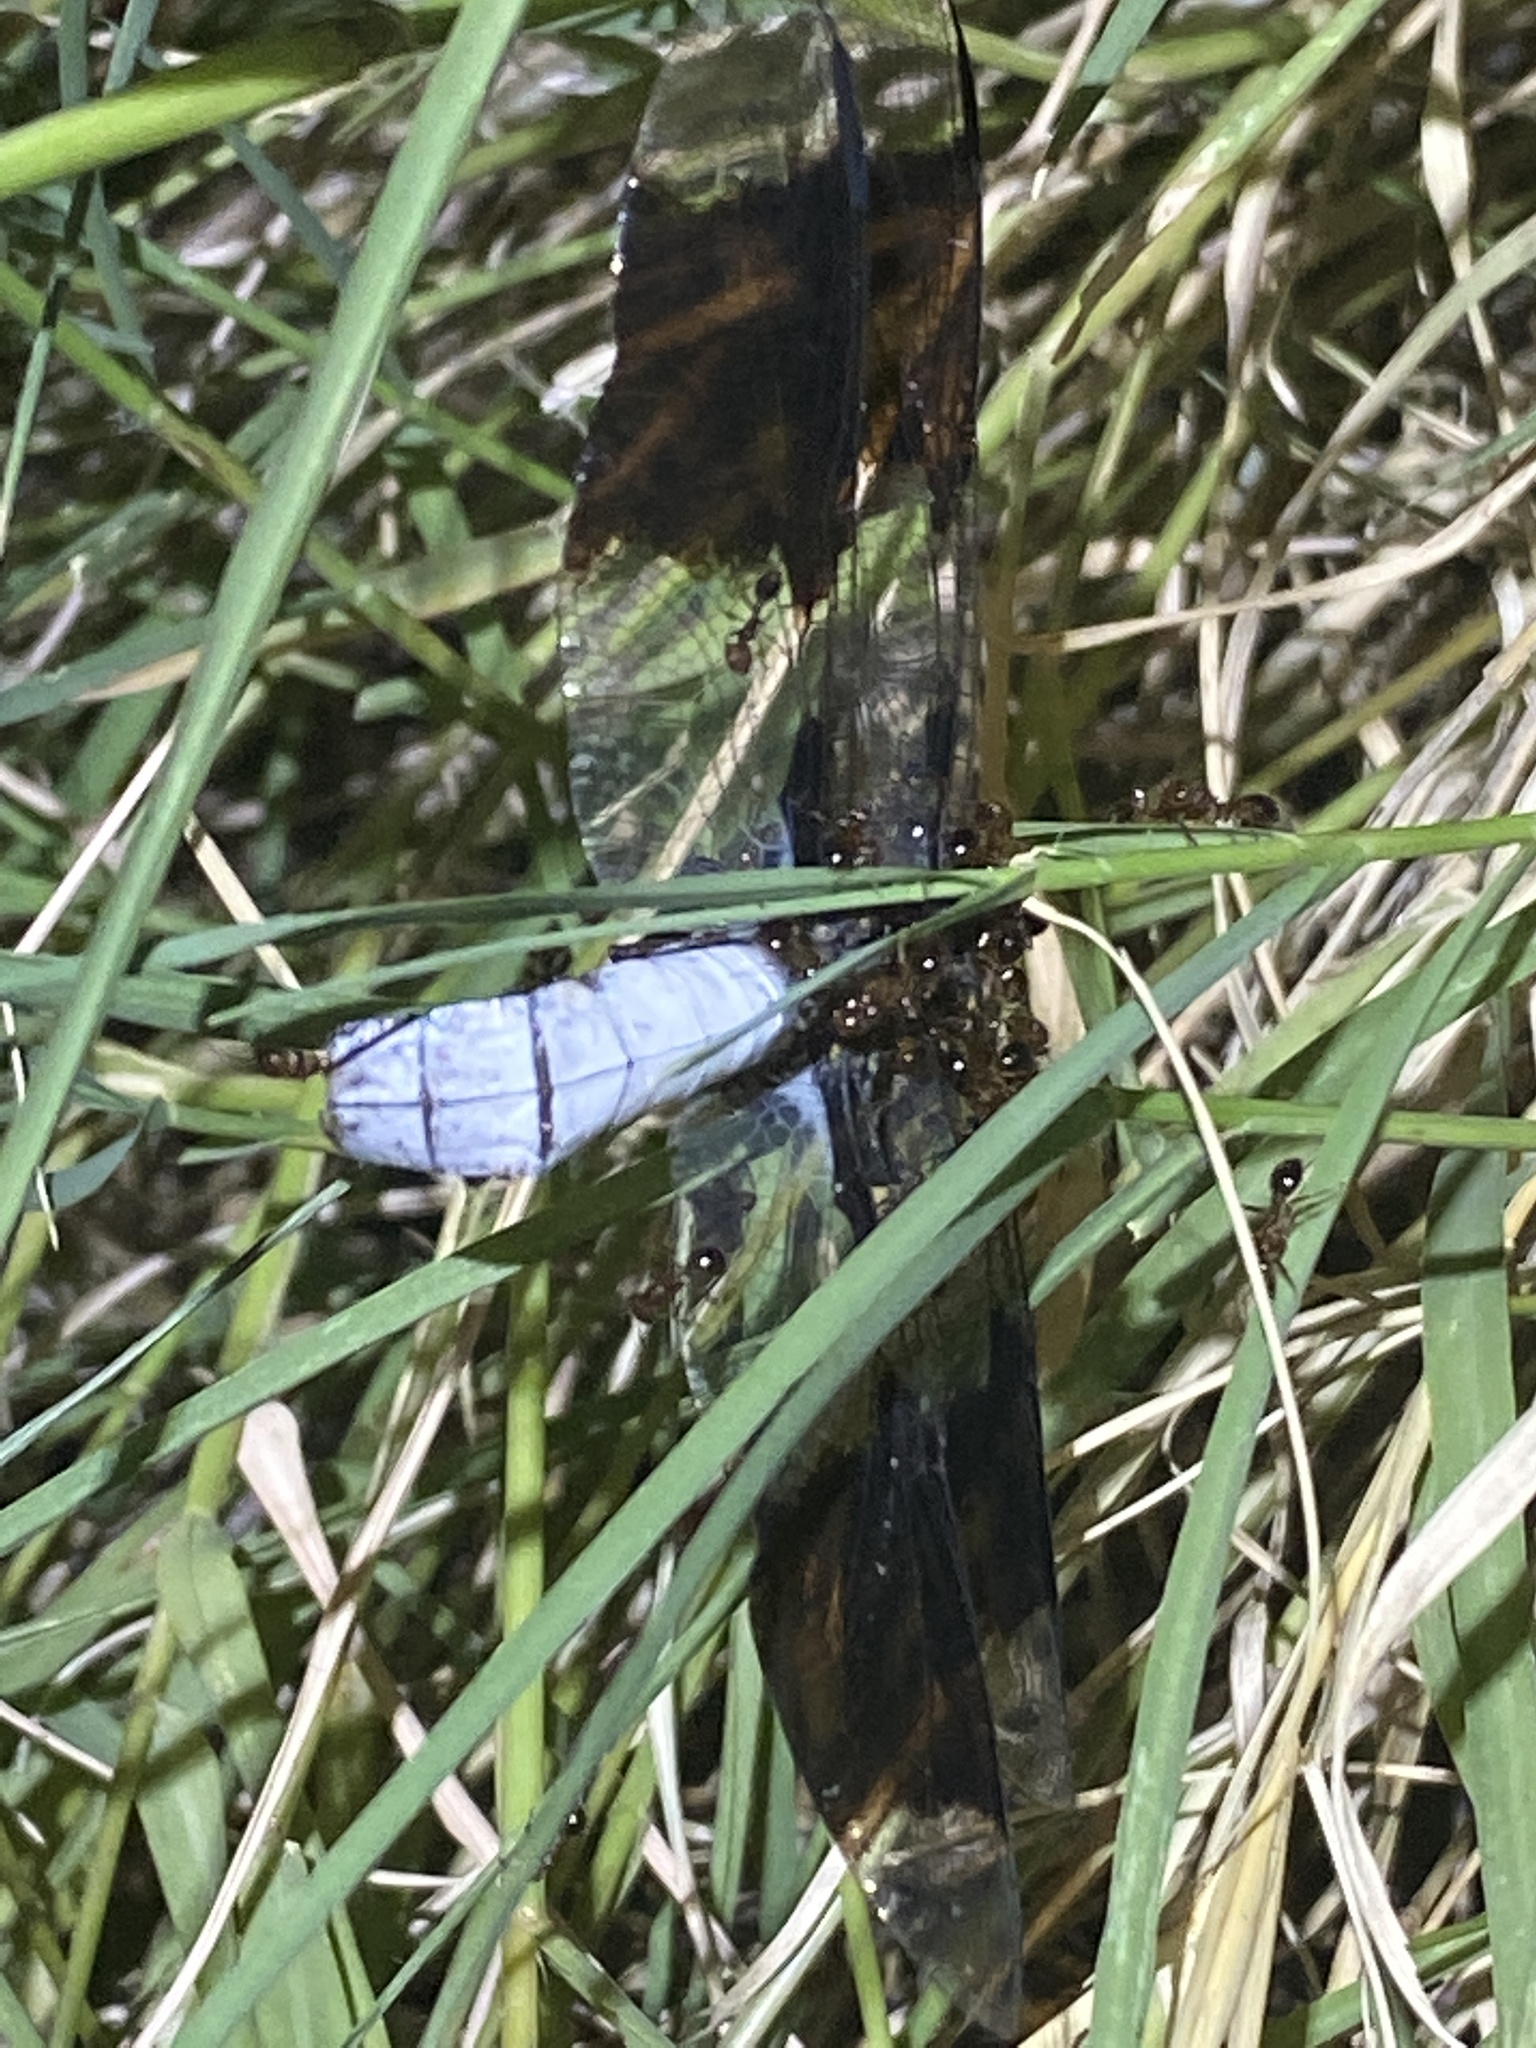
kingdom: Animalia
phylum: Arthropoda
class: Insecta
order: Odonata
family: Libellulidae
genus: Plathemis
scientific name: Plathemis lydia
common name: Common whitetail
